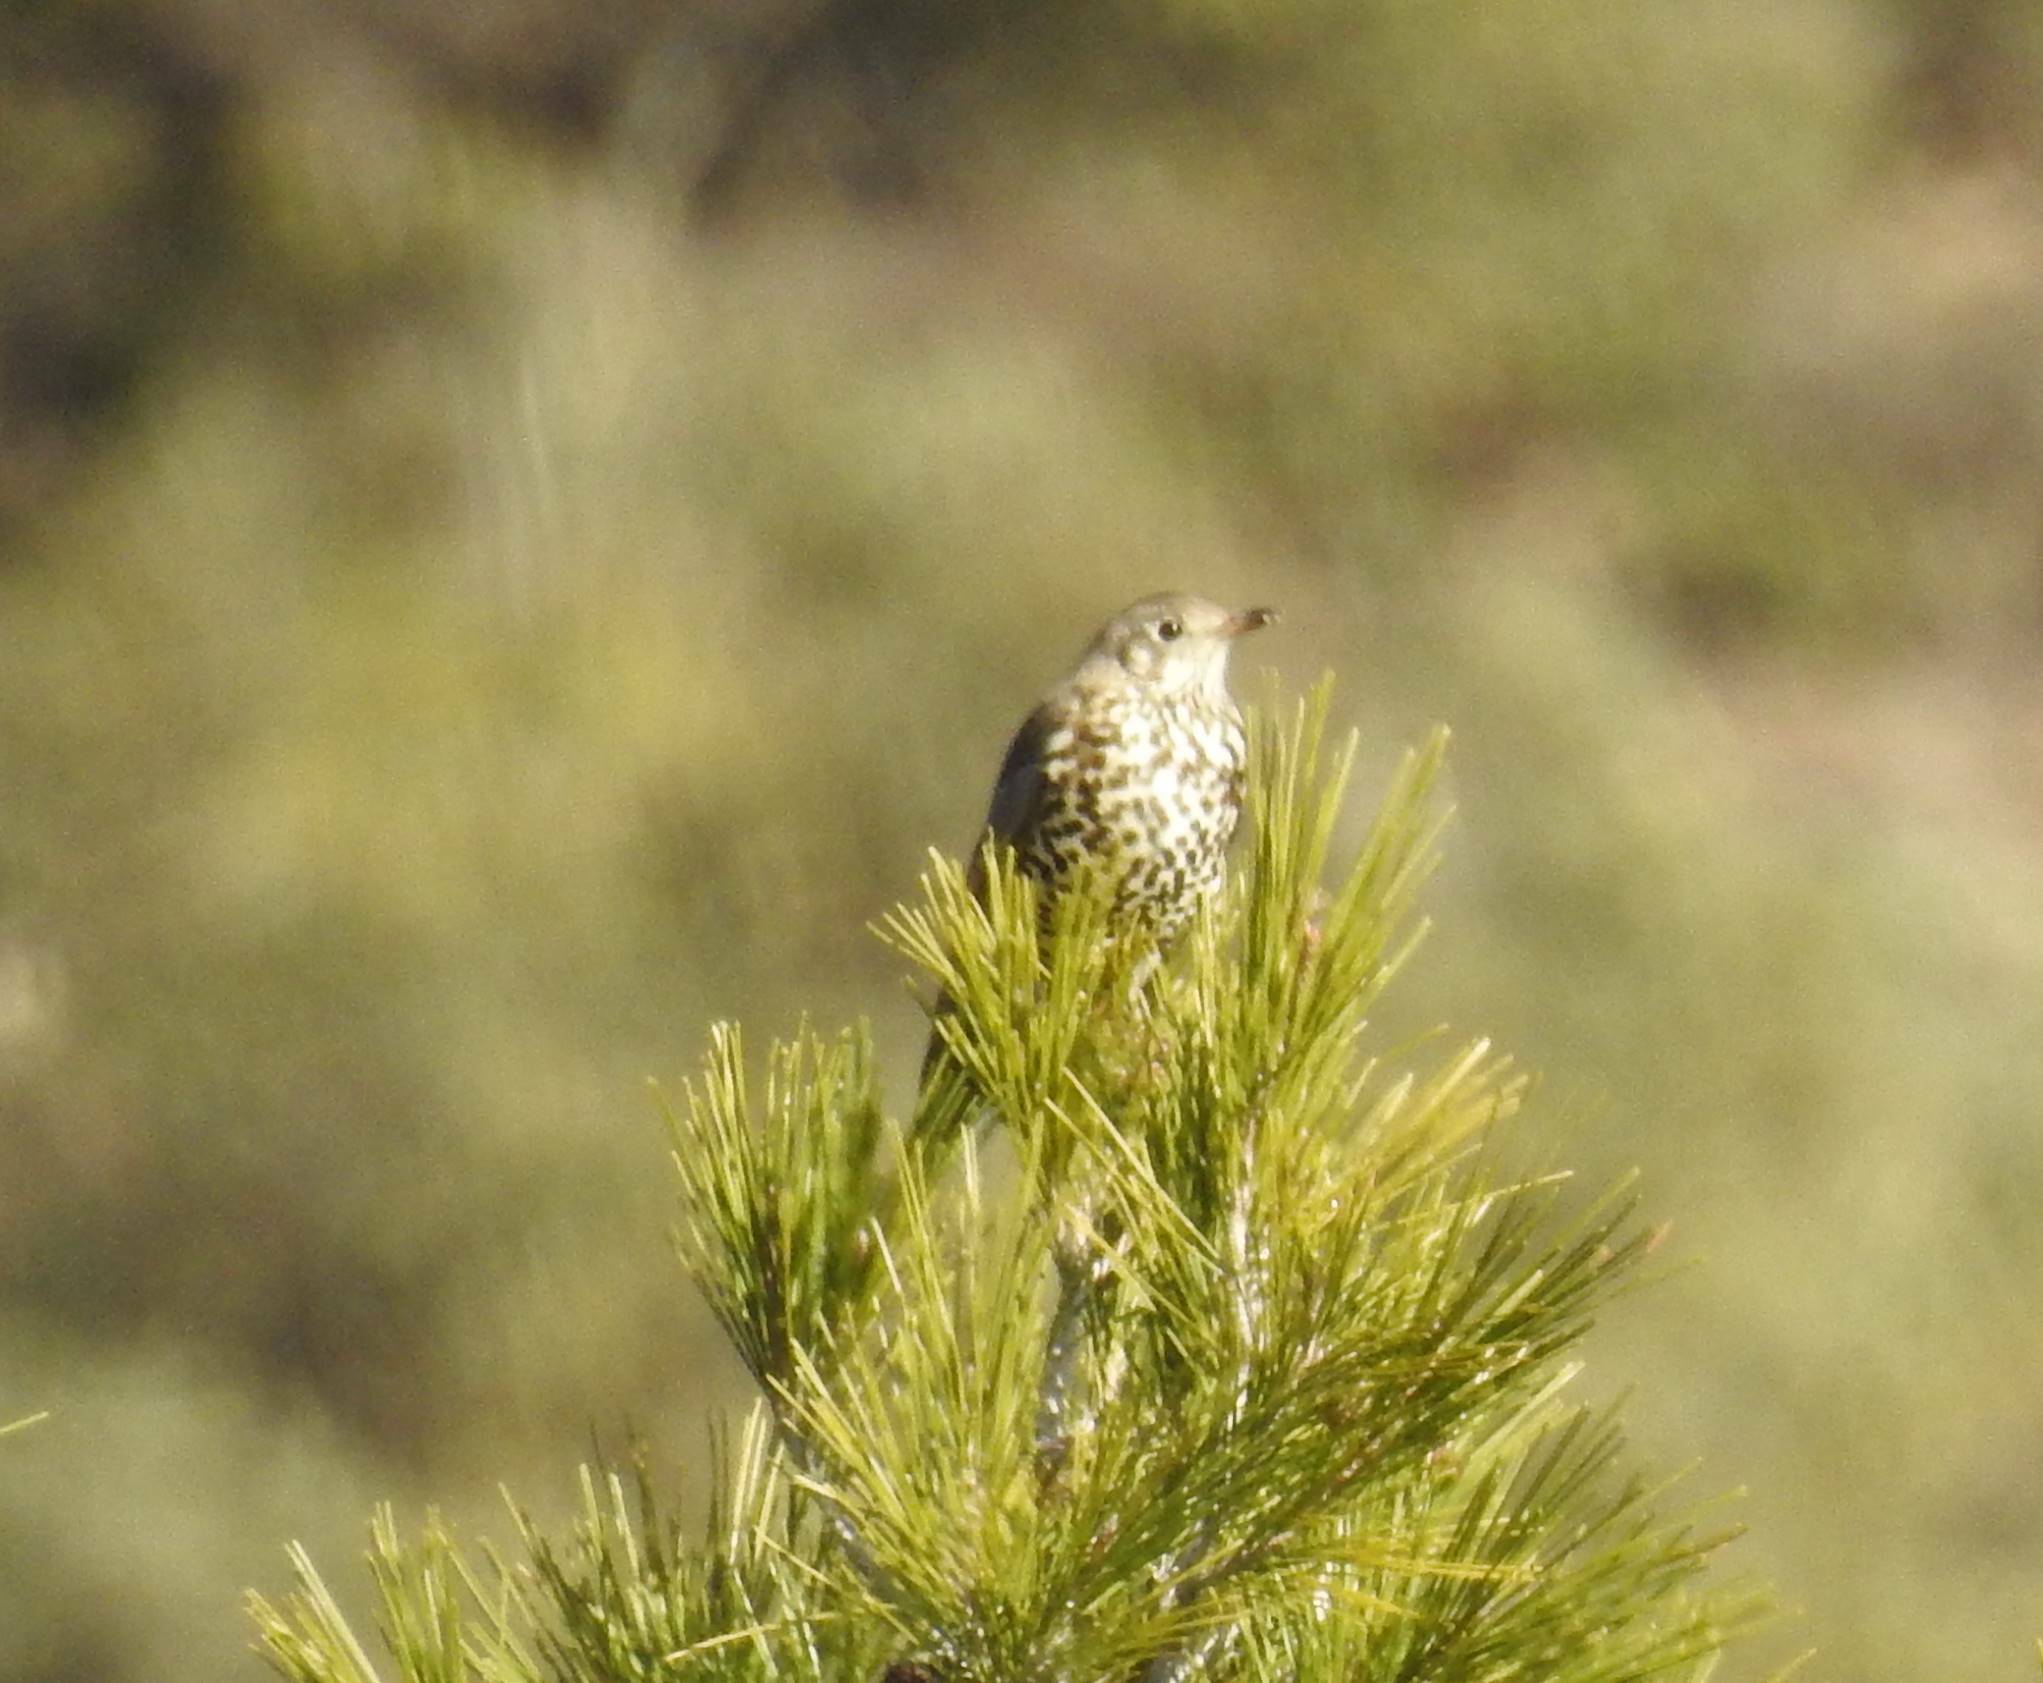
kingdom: Animalia
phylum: Chordata
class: Aves
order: Passeriformes
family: Turdidae
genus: Turdus
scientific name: Turdus viscivorus
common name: Mistle thrush
